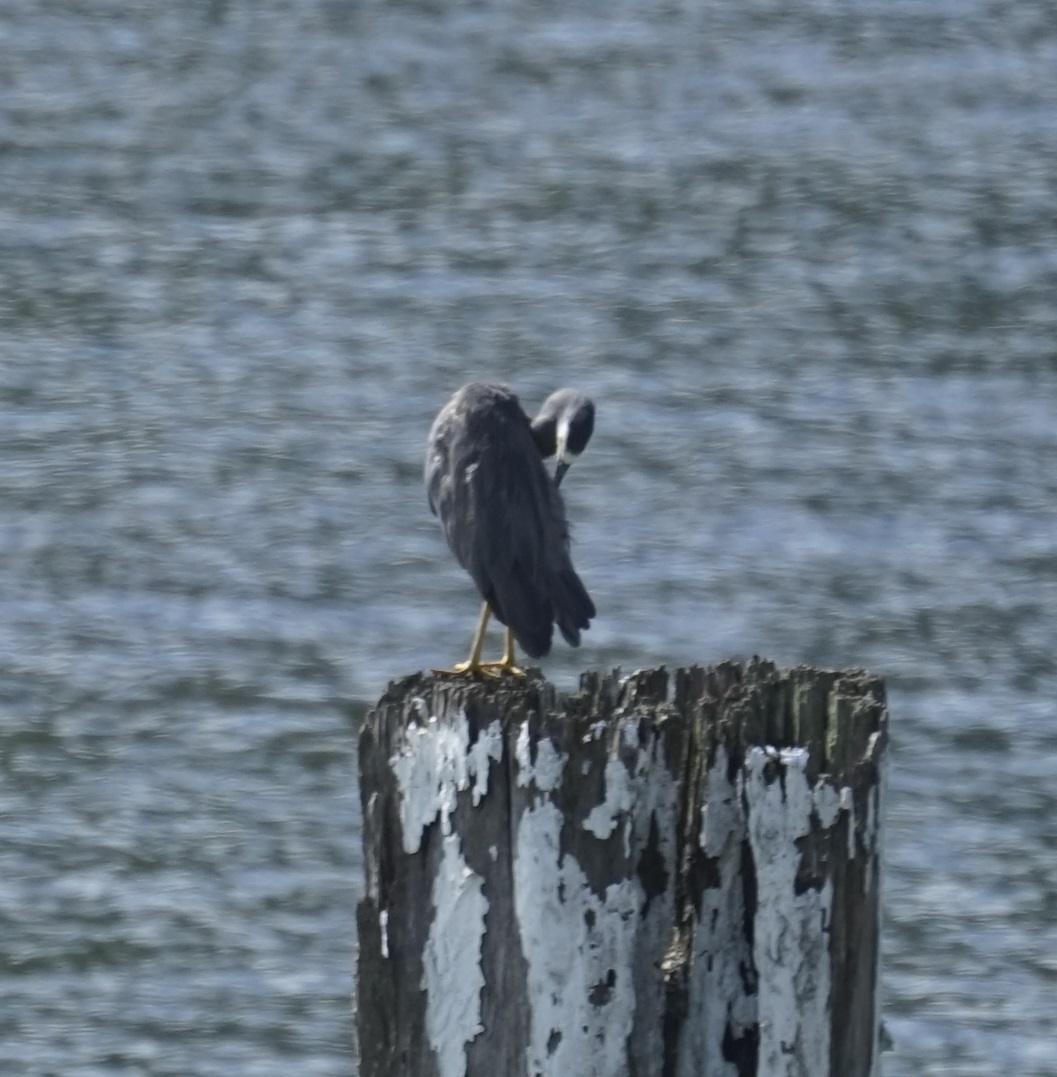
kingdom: Animalia
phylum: Chordata
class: Aves
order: Pelecaniformes
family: Ardeidae
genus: Egretta
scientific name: Egretta novaehollandiae
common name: White-faced heron
